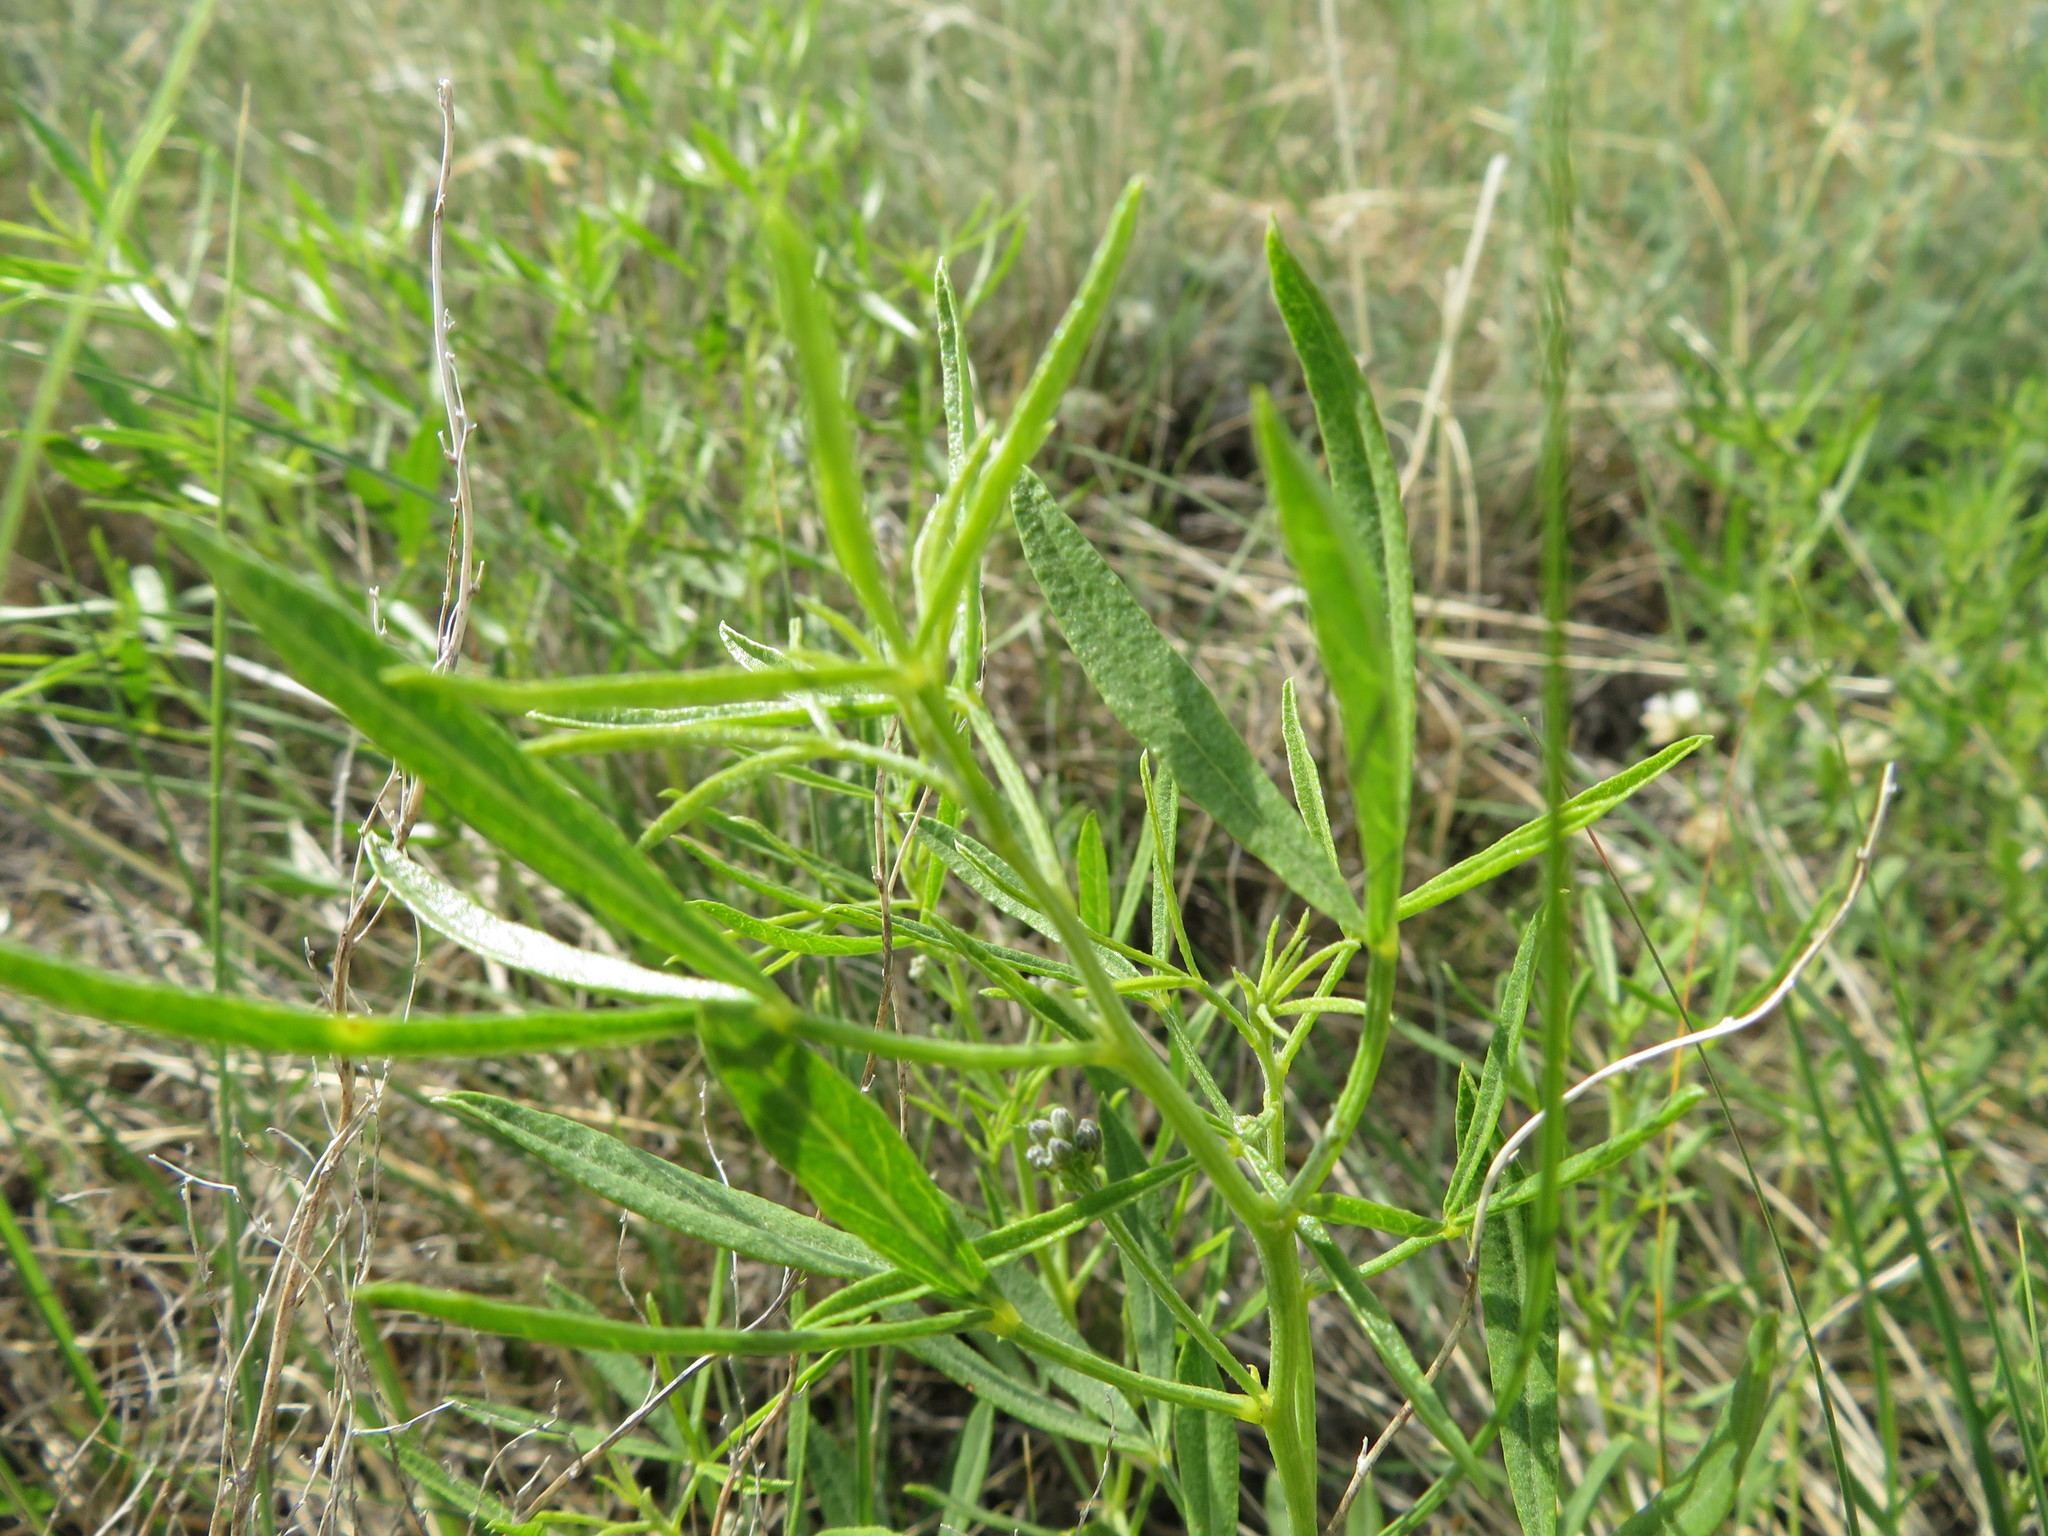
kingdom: Plantae
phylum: Tracheophyta
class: Magnoliopsida
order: Fabales
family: Fabaceae
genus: Ladeania
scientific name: Ladeania lanceolata
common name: Dune scurf-pea
